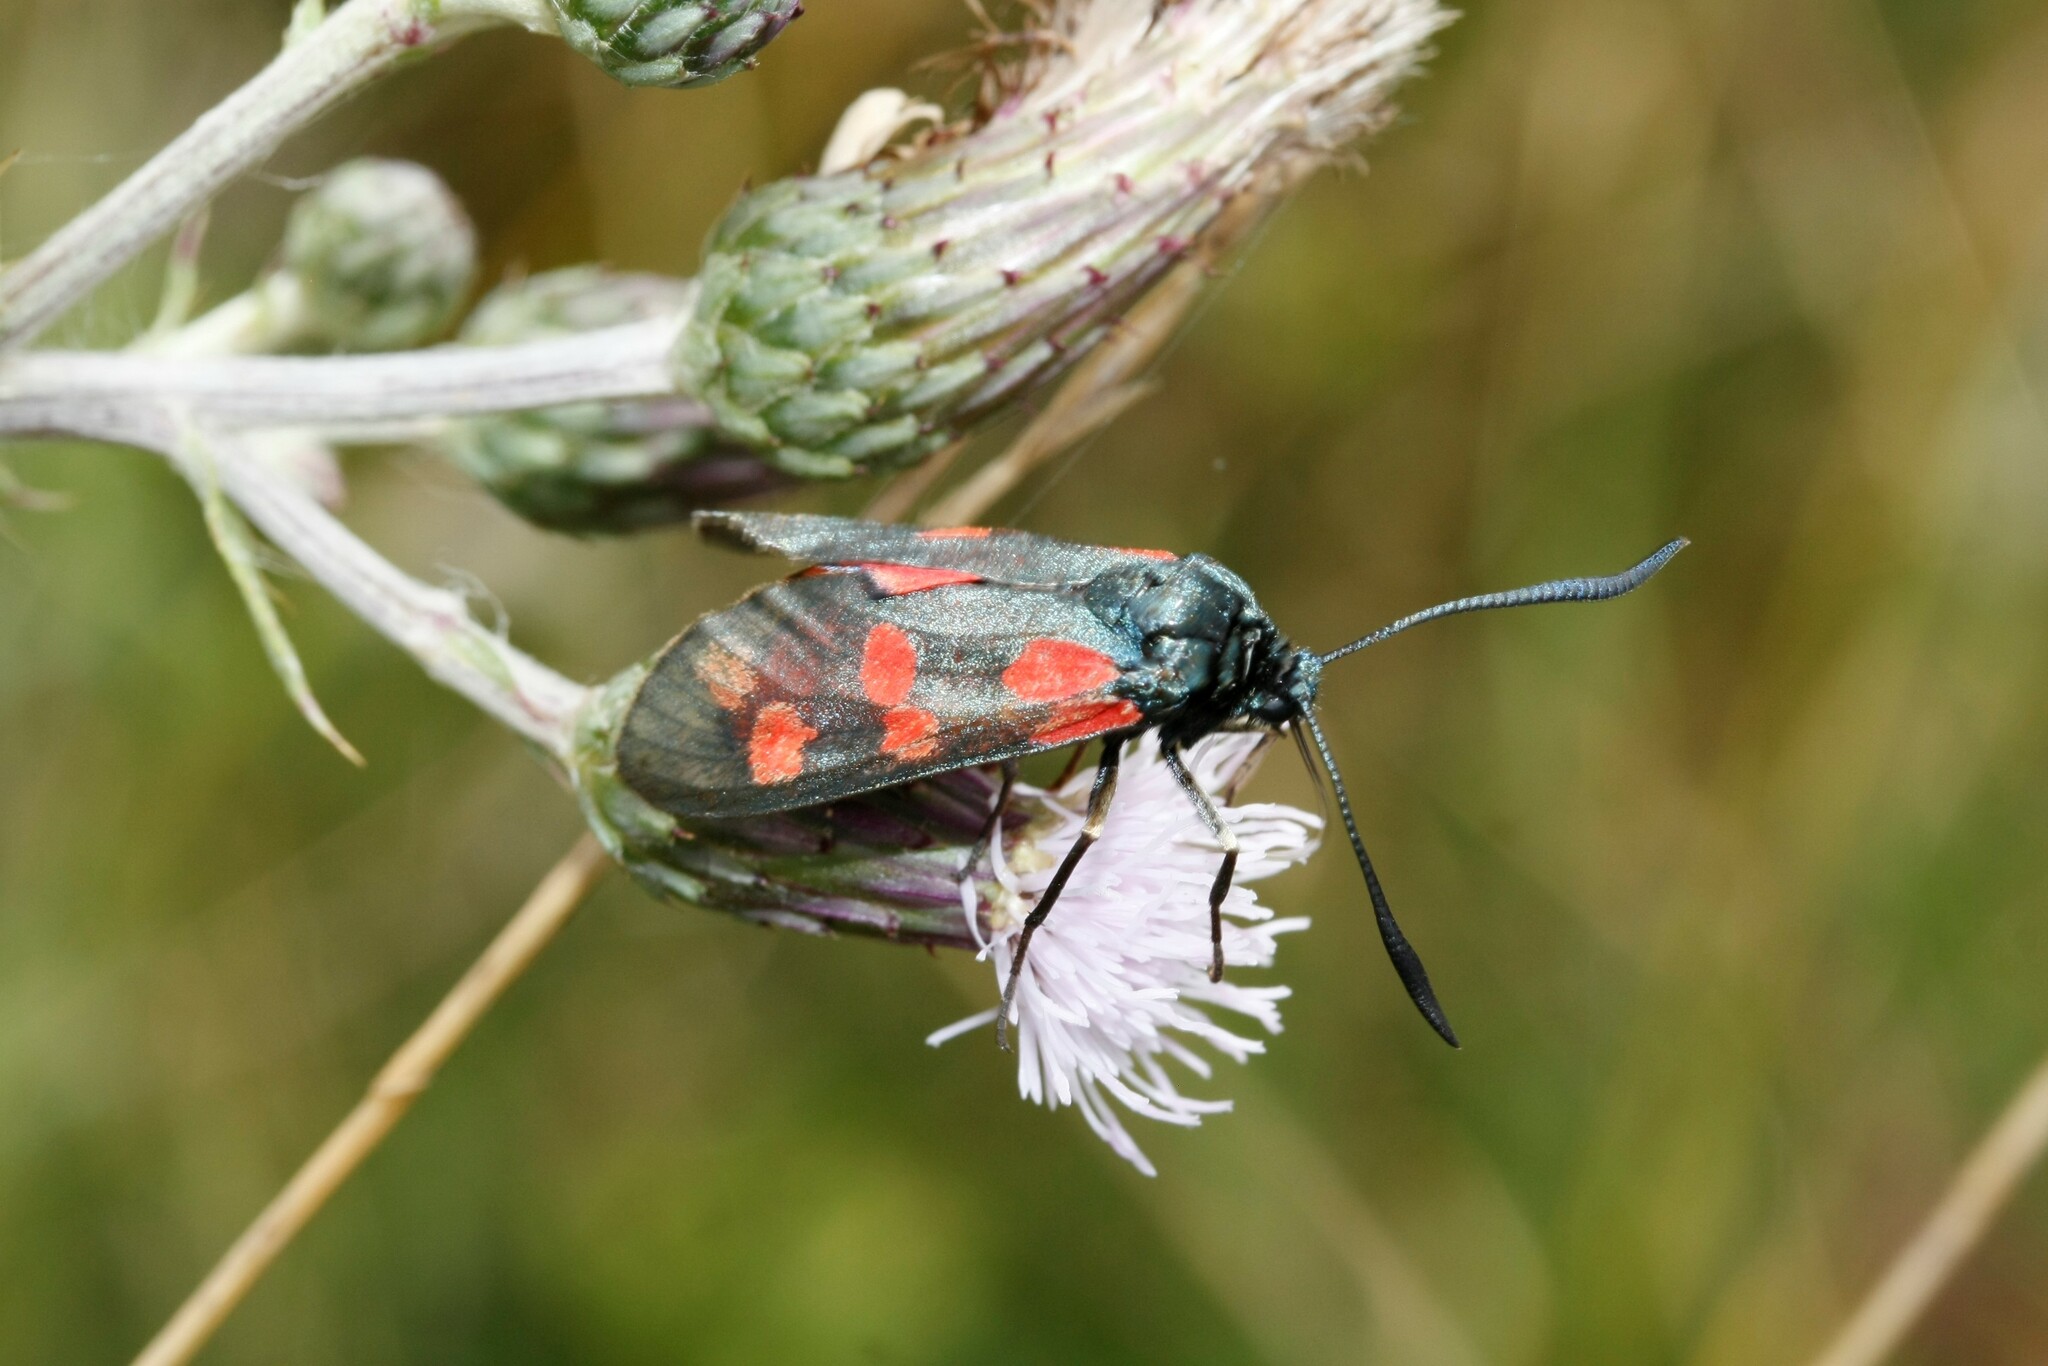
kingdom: Animalia
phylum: Arthropoda
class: Insecta
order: Lepidoptera
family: Zygaenidae
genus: Zygaena
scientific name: Zygaena filipendulae
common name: Six-spot burnet
